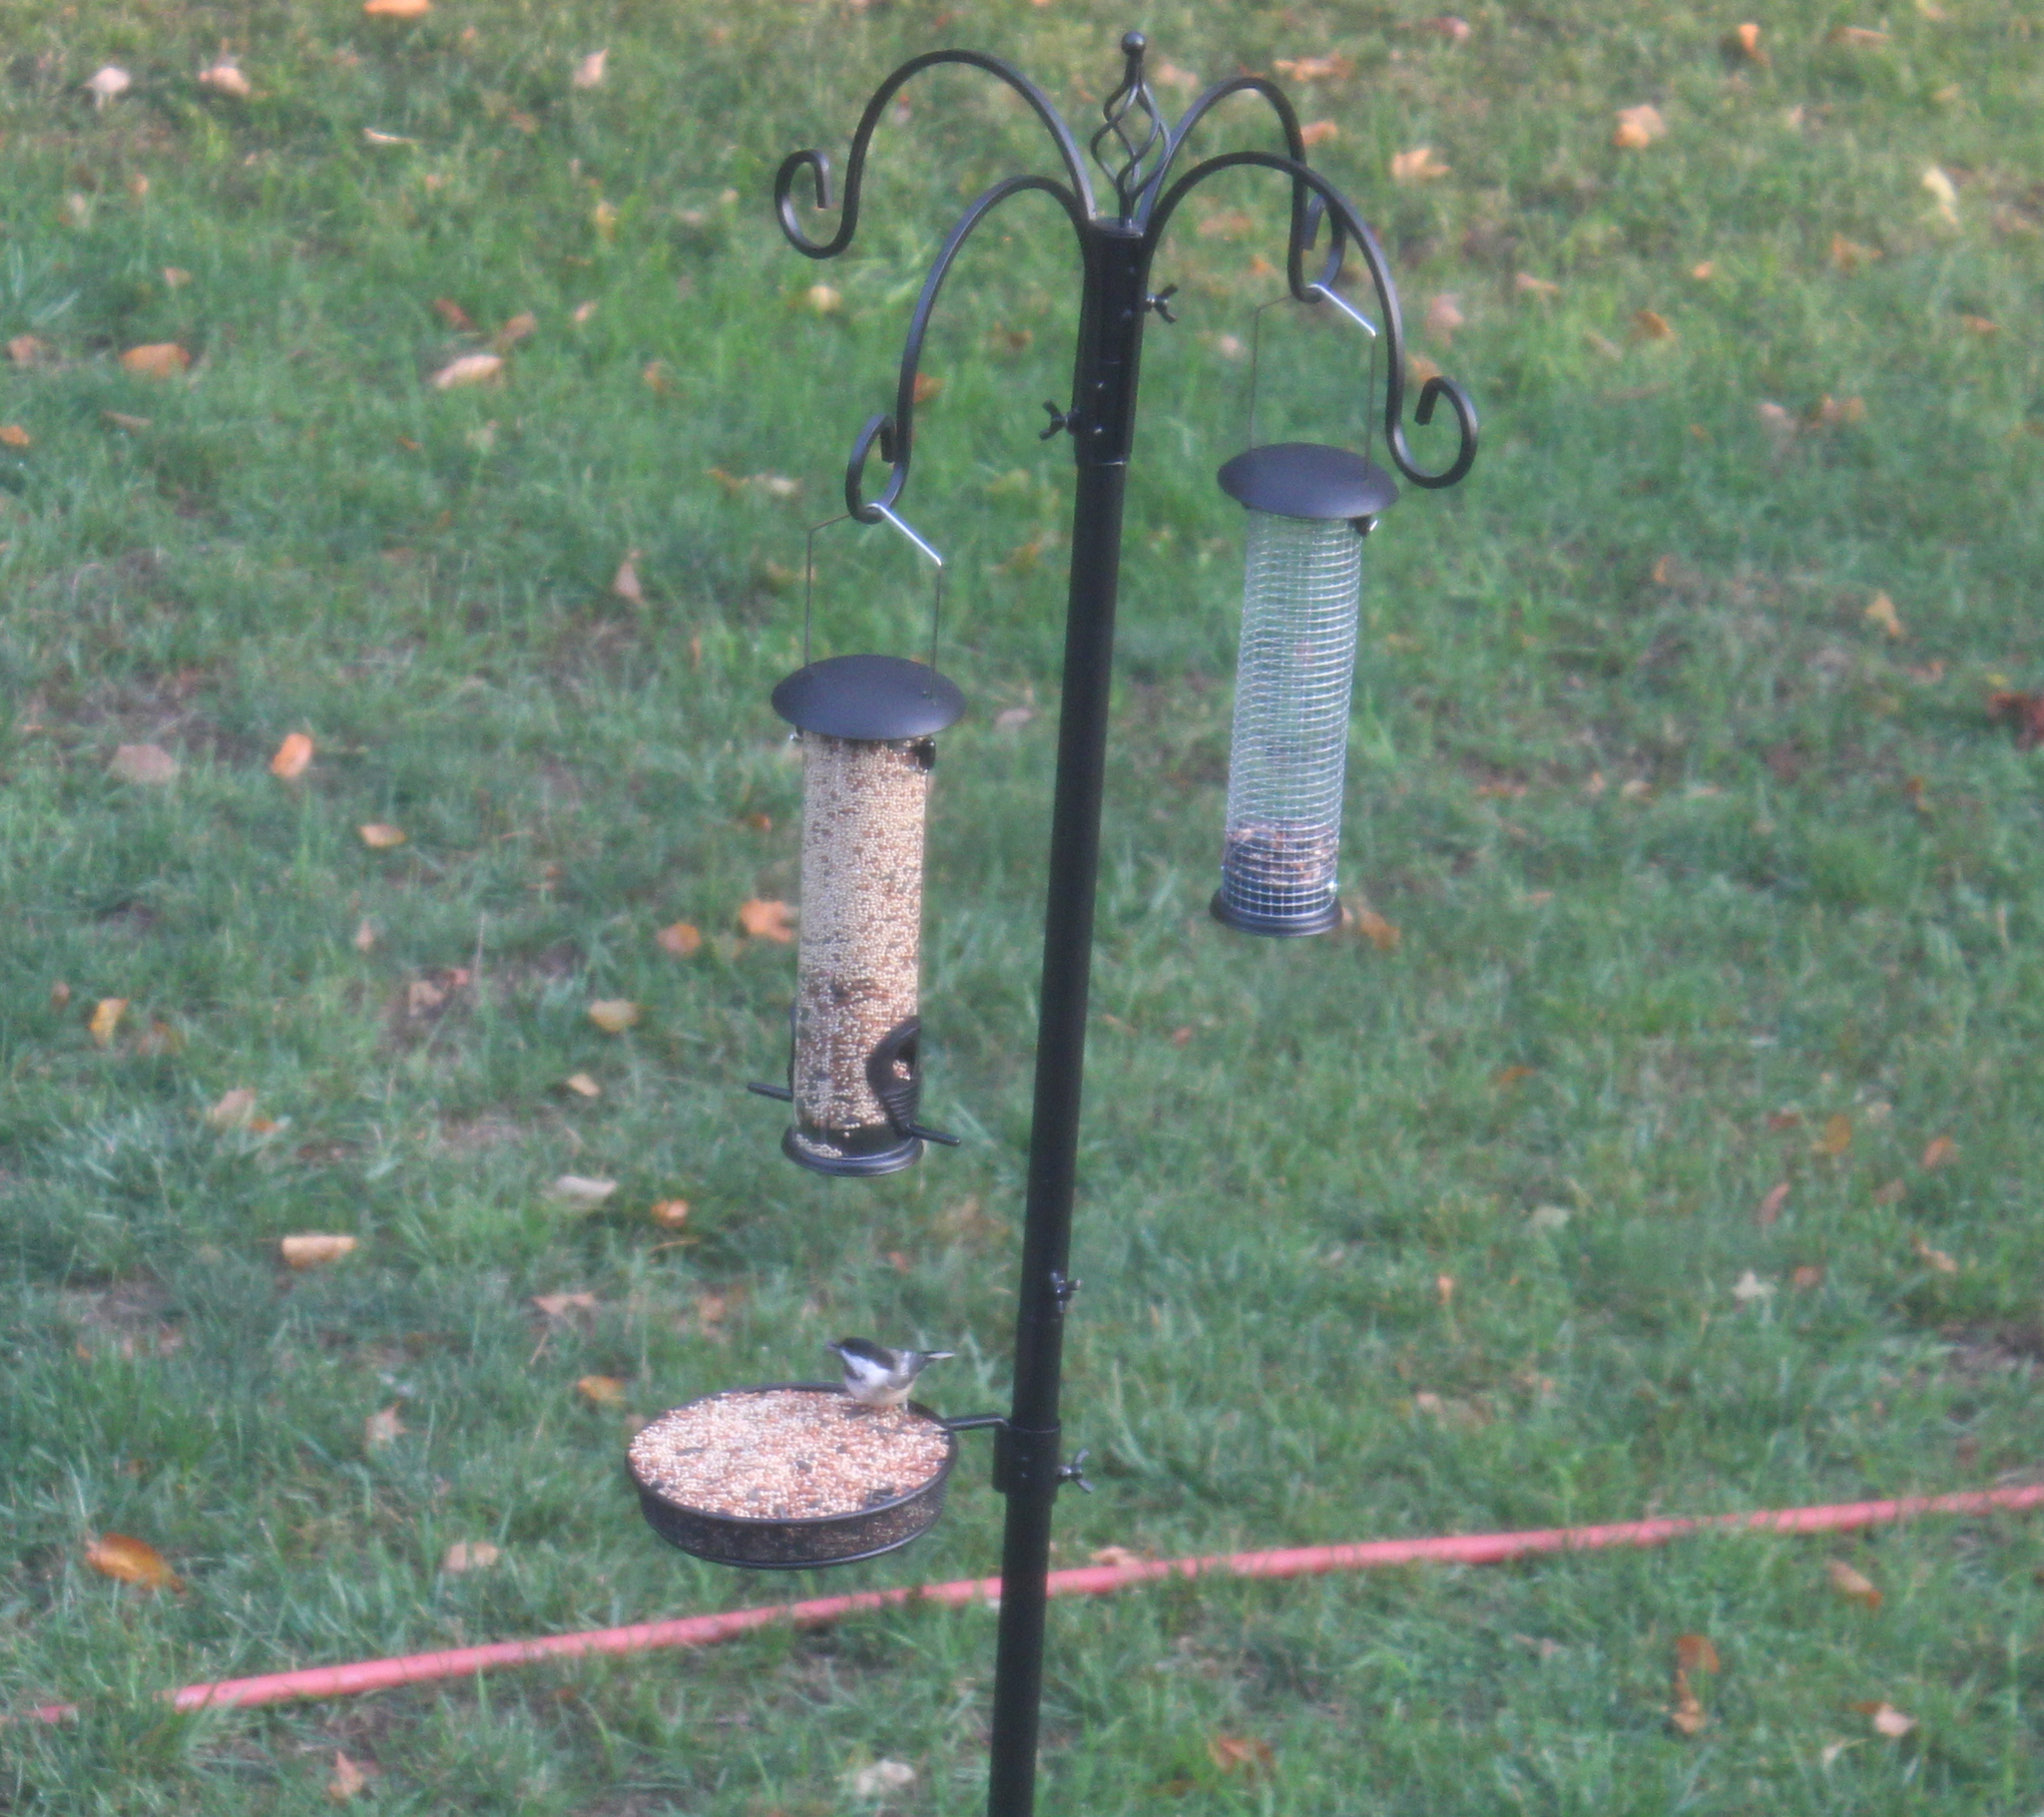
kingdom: Animalia
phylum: Chordata
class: Aves
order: Passeriformes
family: Paridae
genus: Poecile
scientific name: Poecile atricapillus
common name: Black-capped chickadee
